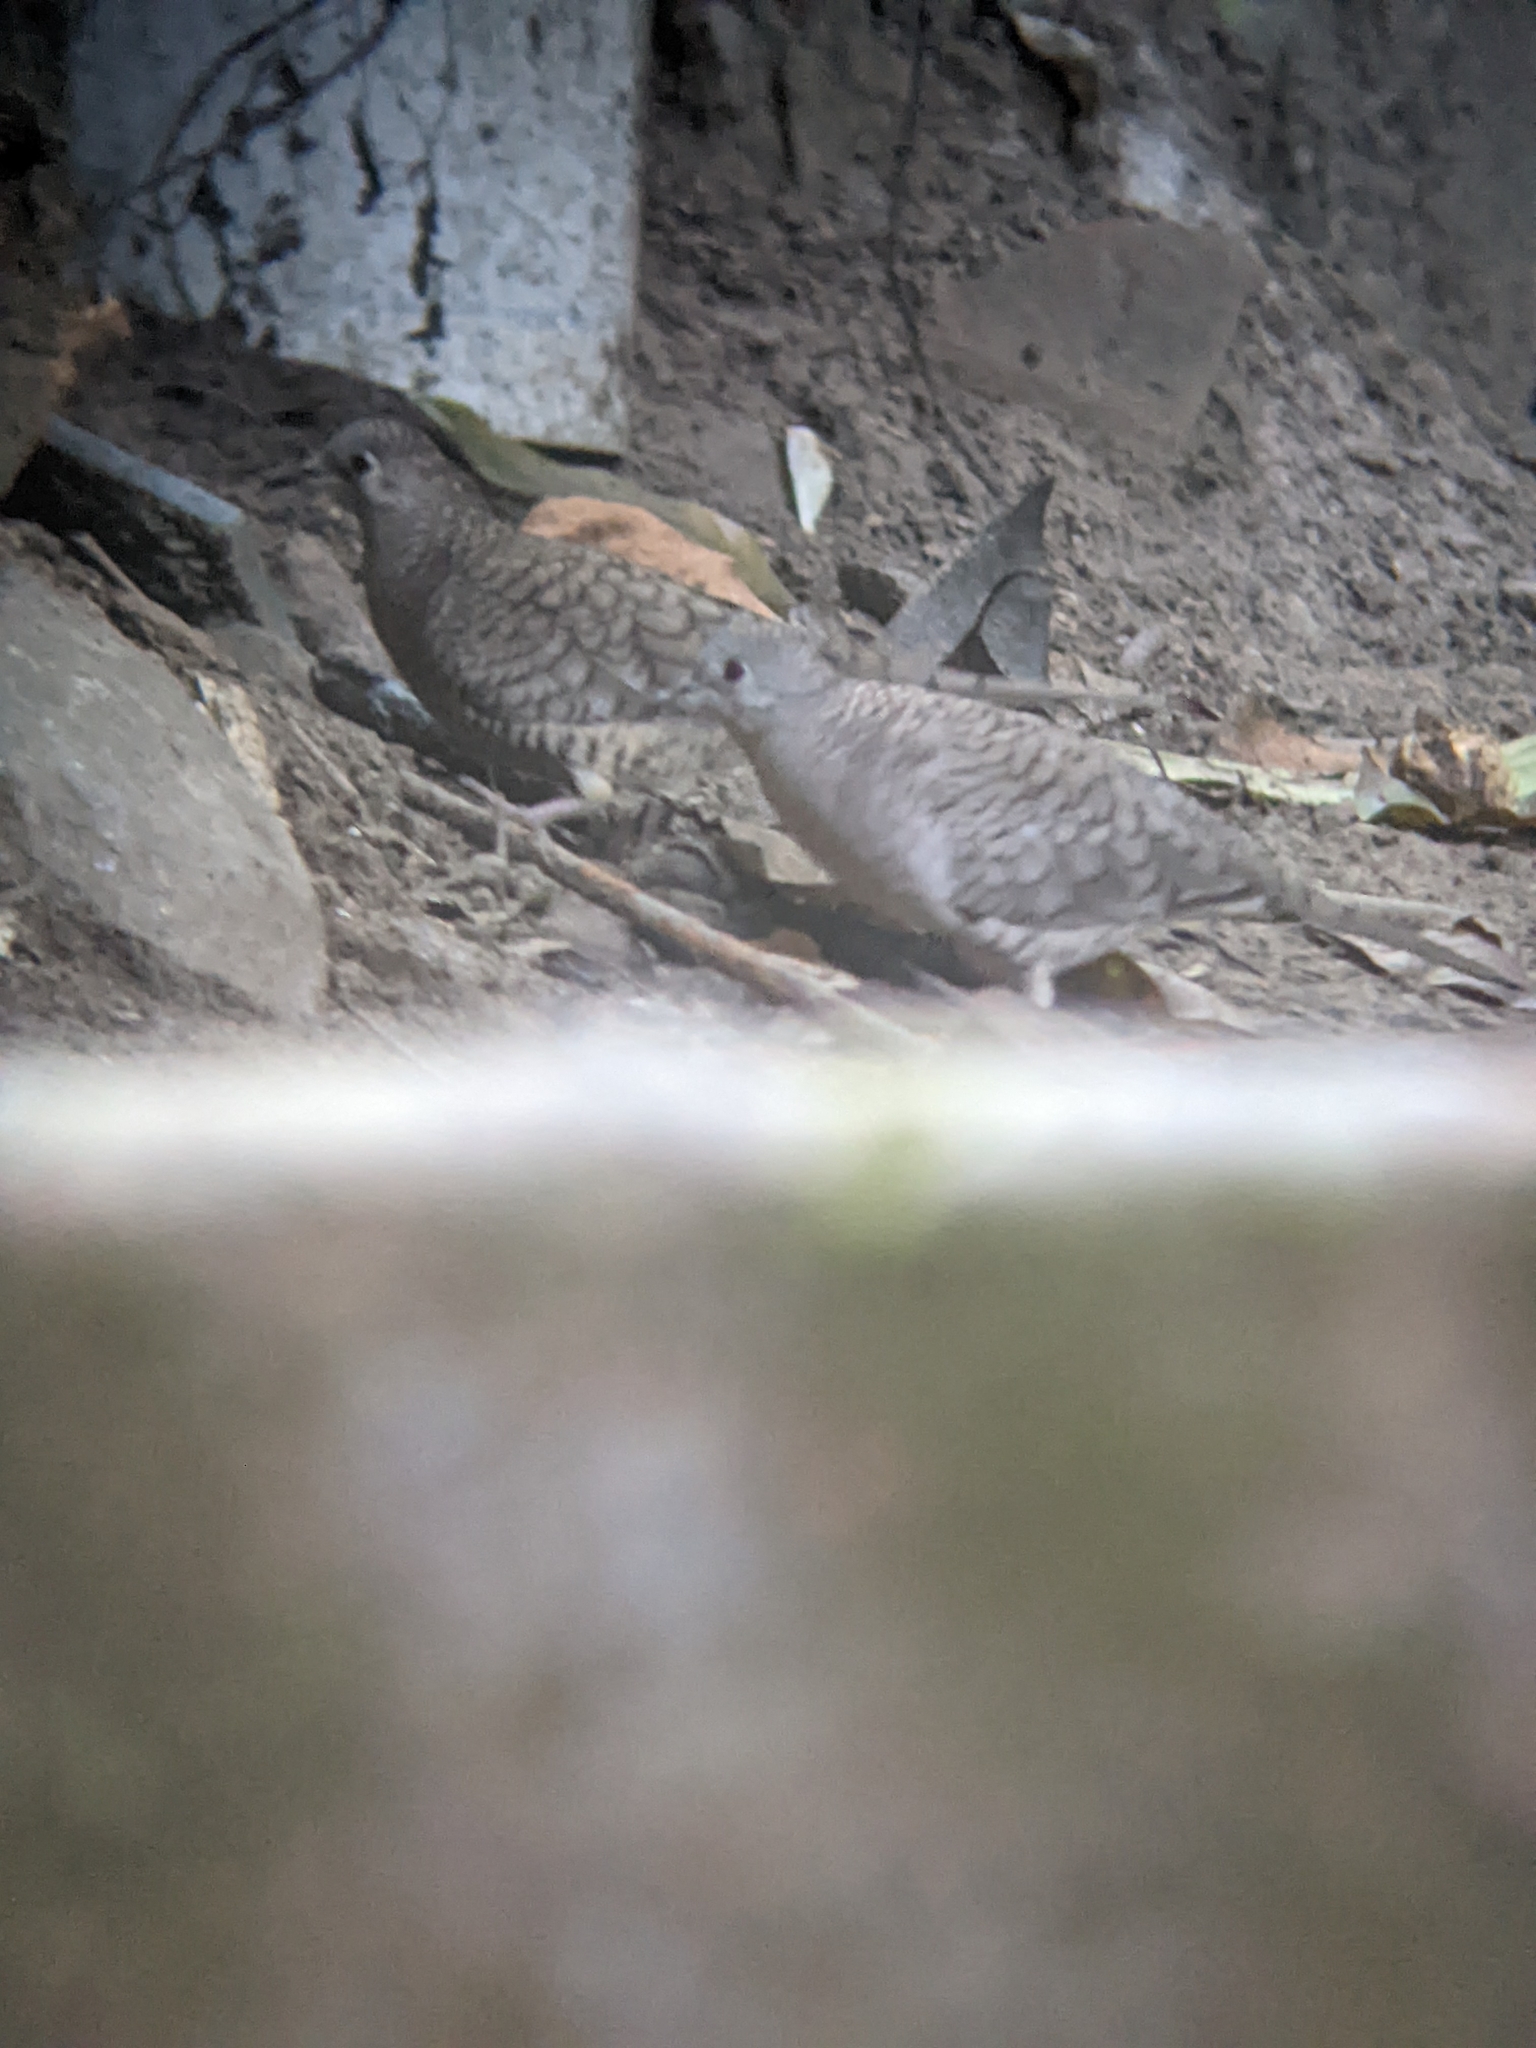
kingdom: Animalia
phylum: Chordata
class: Aves
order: Columbiformes
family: Columbidae
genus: Columbina
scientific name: Columbina inca
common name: Inca dove
